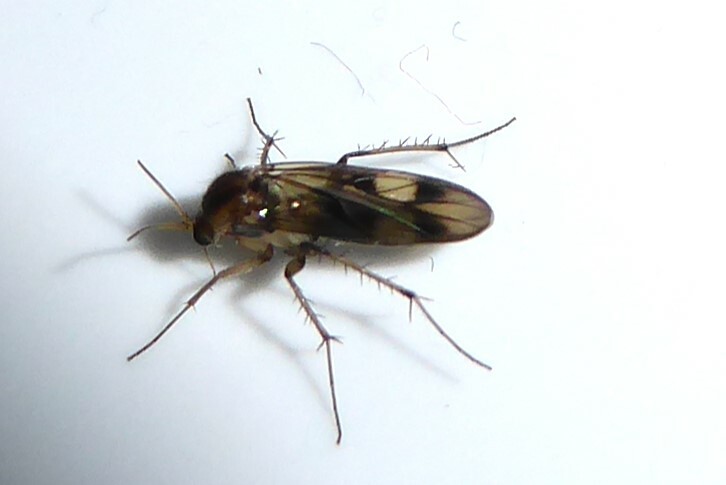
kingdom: Animalia
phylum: Arthropoda
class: Insecta
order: Diptera
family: Mycetophilidae
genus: Anomalomyia
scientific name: Anomalomyia guttata
